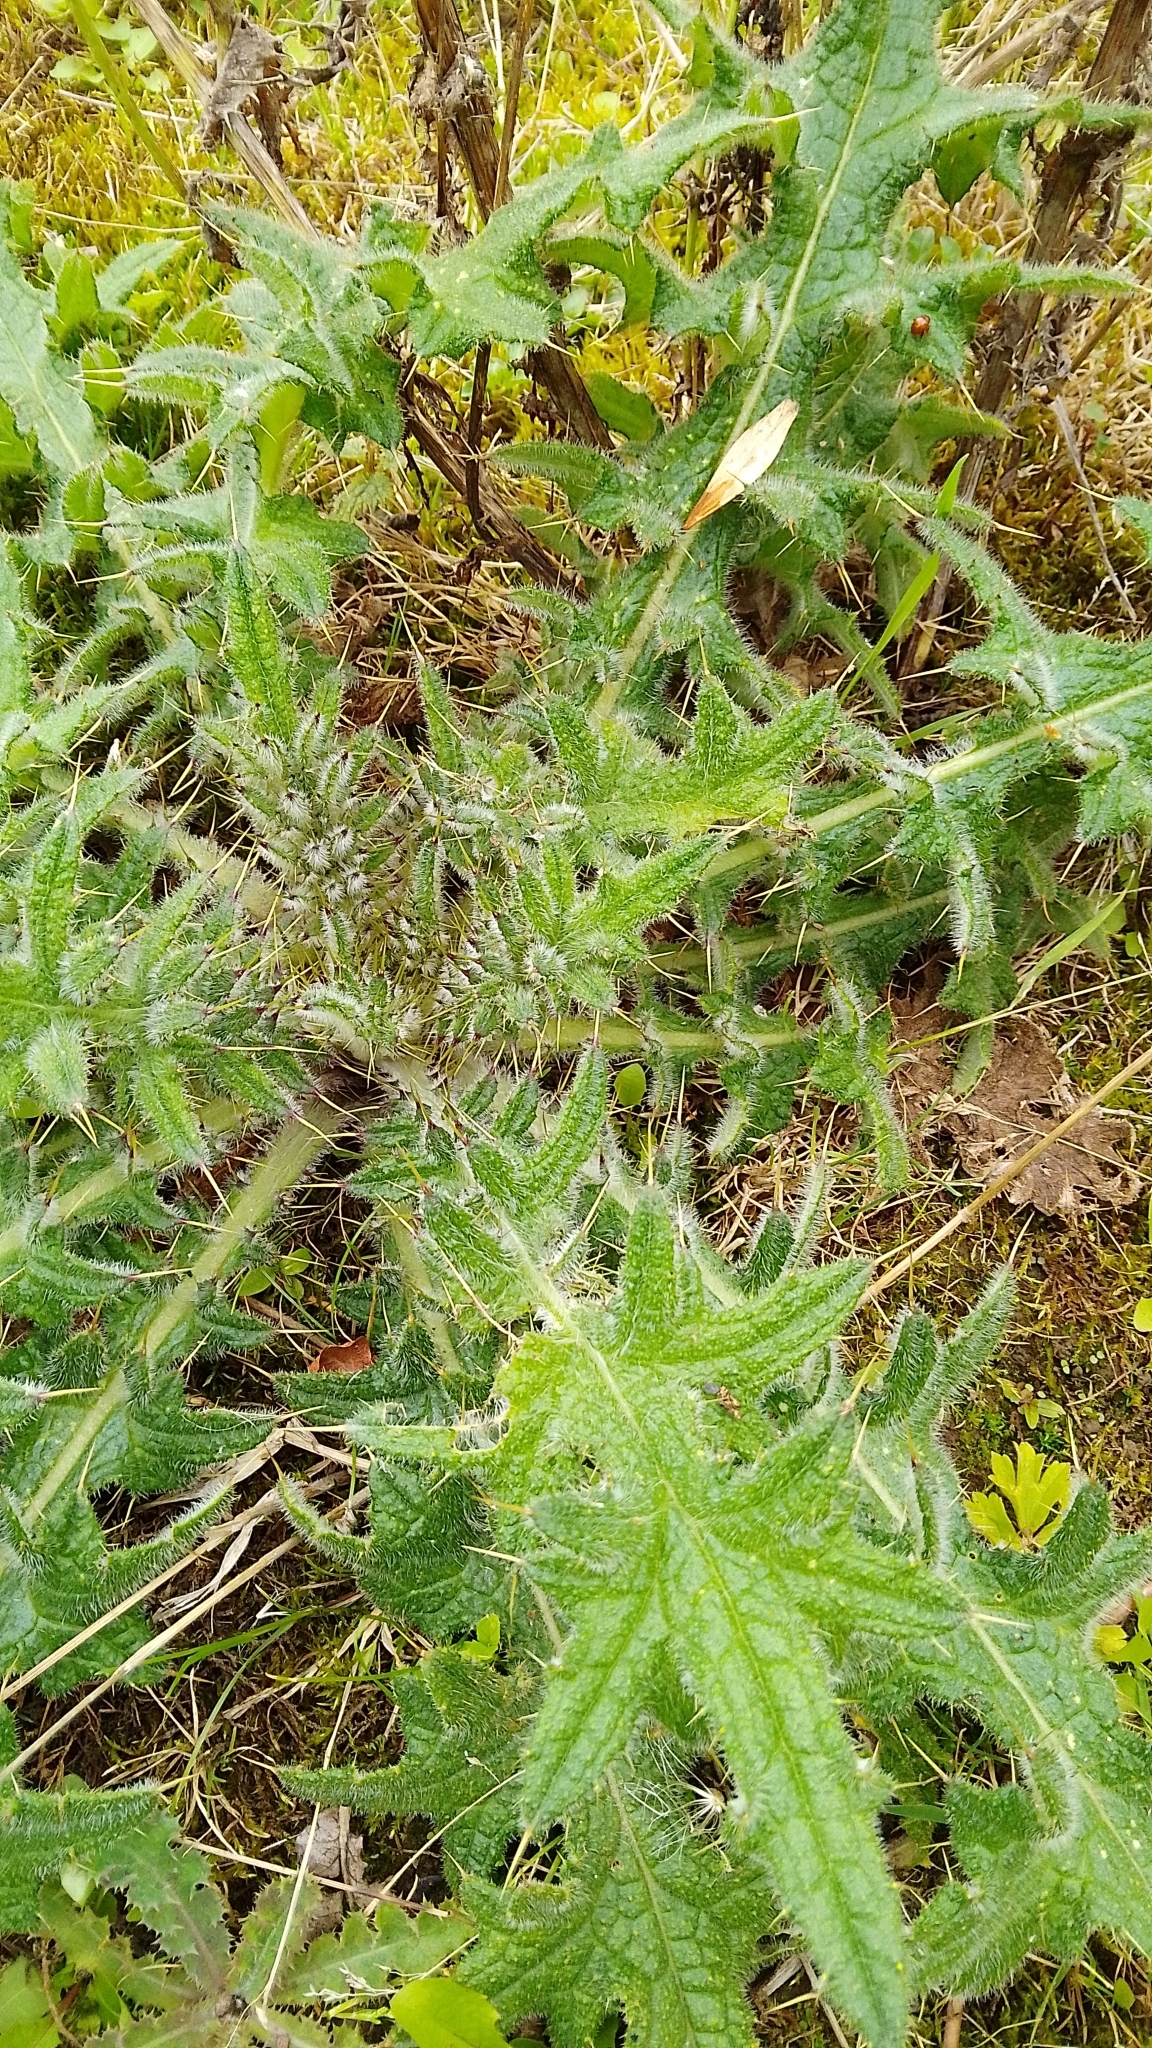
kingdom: Plantae
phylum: Tracheophyta
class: Magnoliopsida
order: Asterales
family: Asteraceae
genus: Cirsium
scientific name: Cirsium vulgare
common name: Bull thistle
